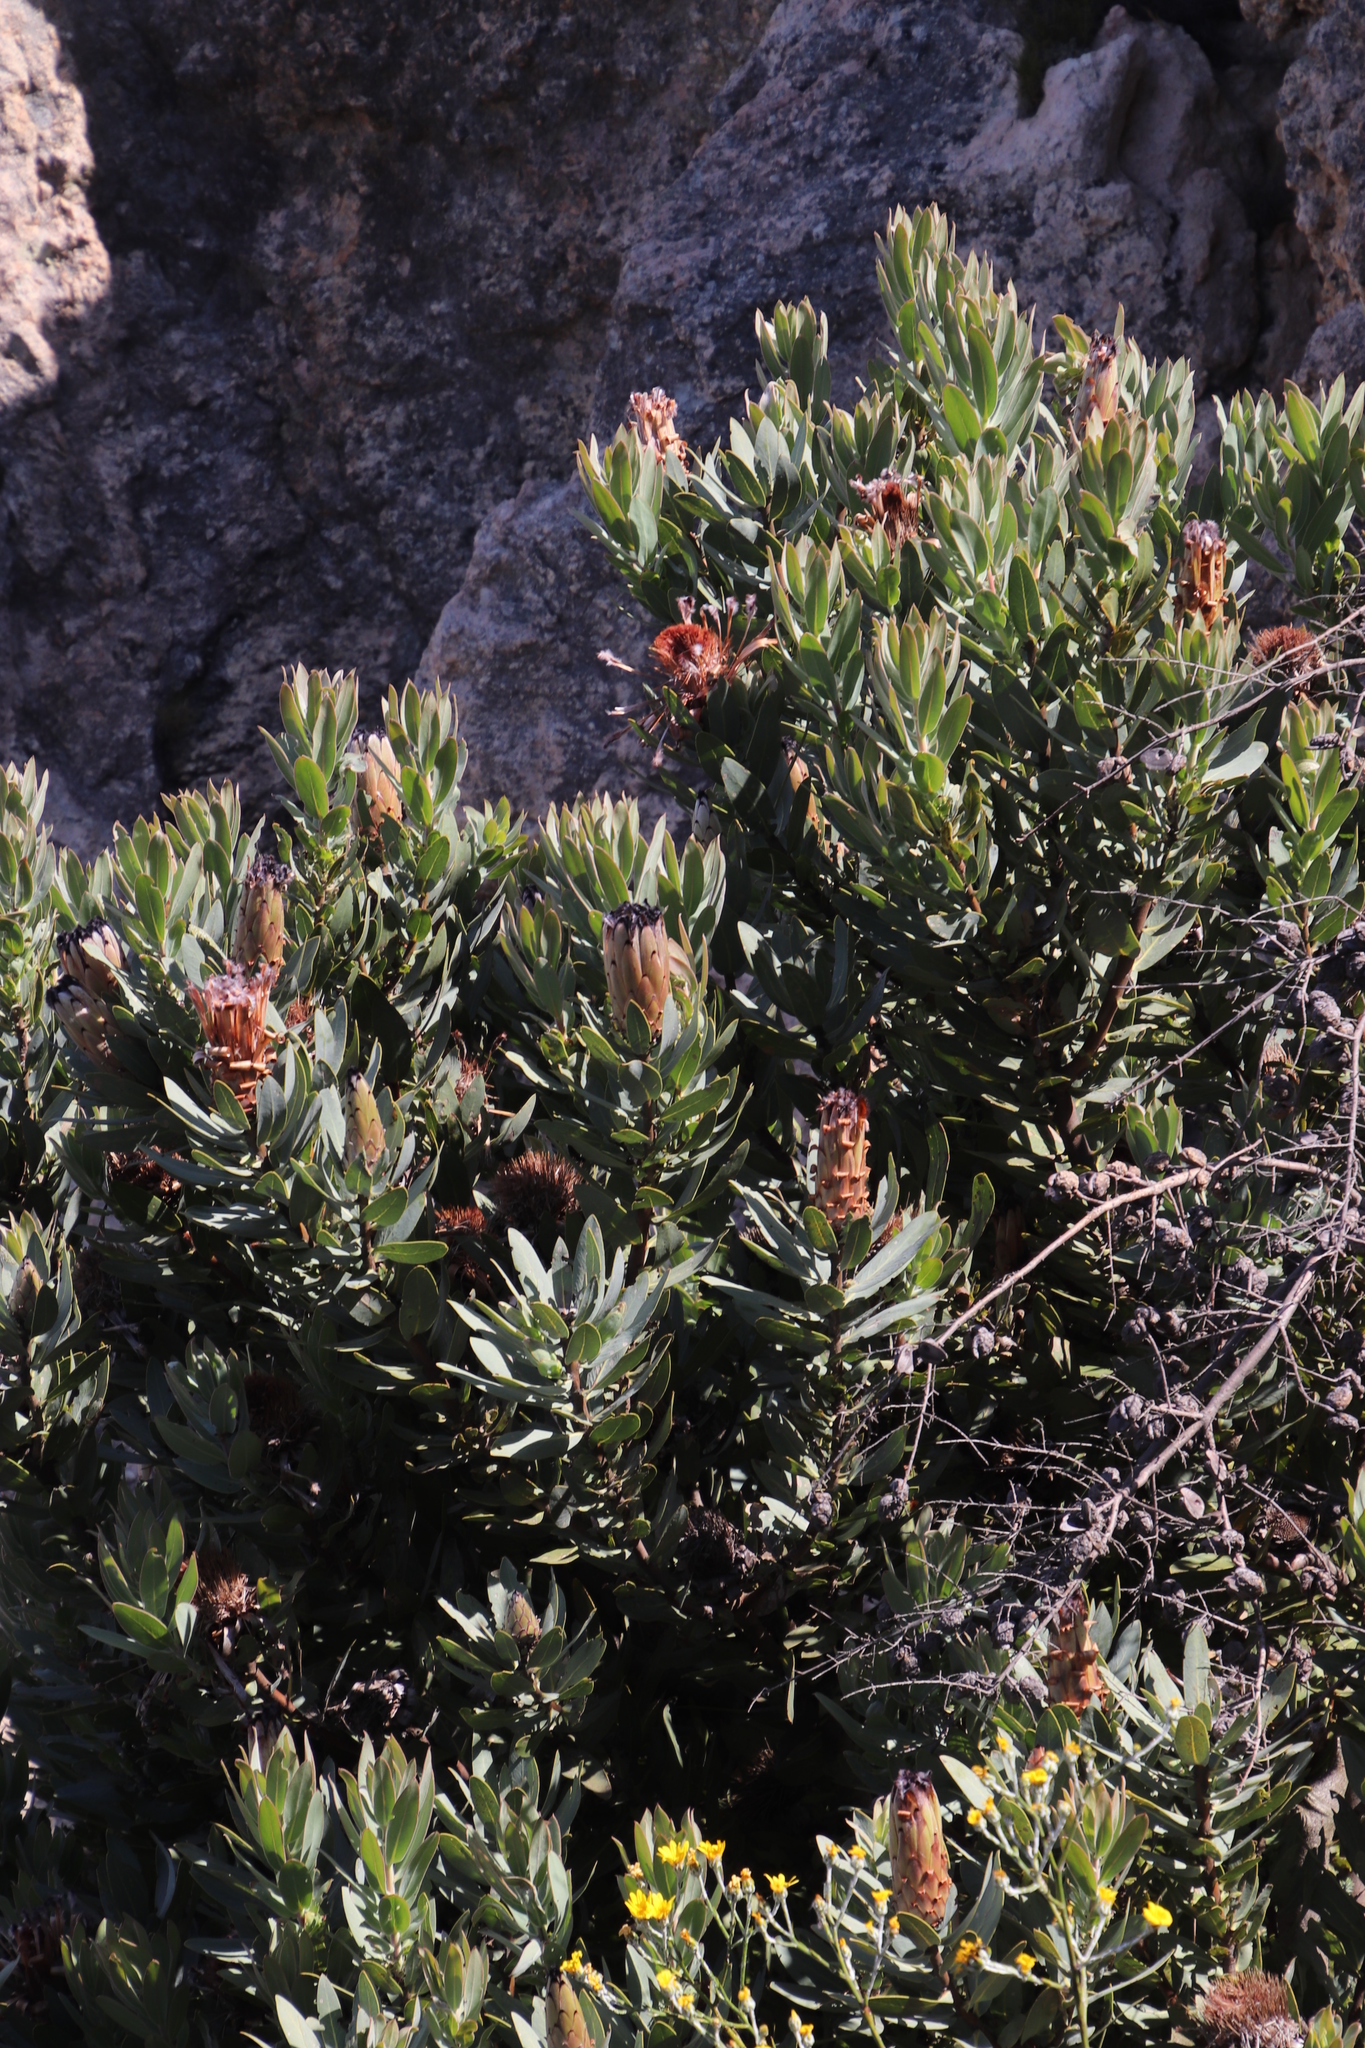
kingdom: Plantae
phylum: Tracheophyta
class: Magnoliopsida
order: Proteales
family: Proteaceae
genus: Protea
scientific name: Protea laurifolia
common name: Grey-leaf sugarbsh
